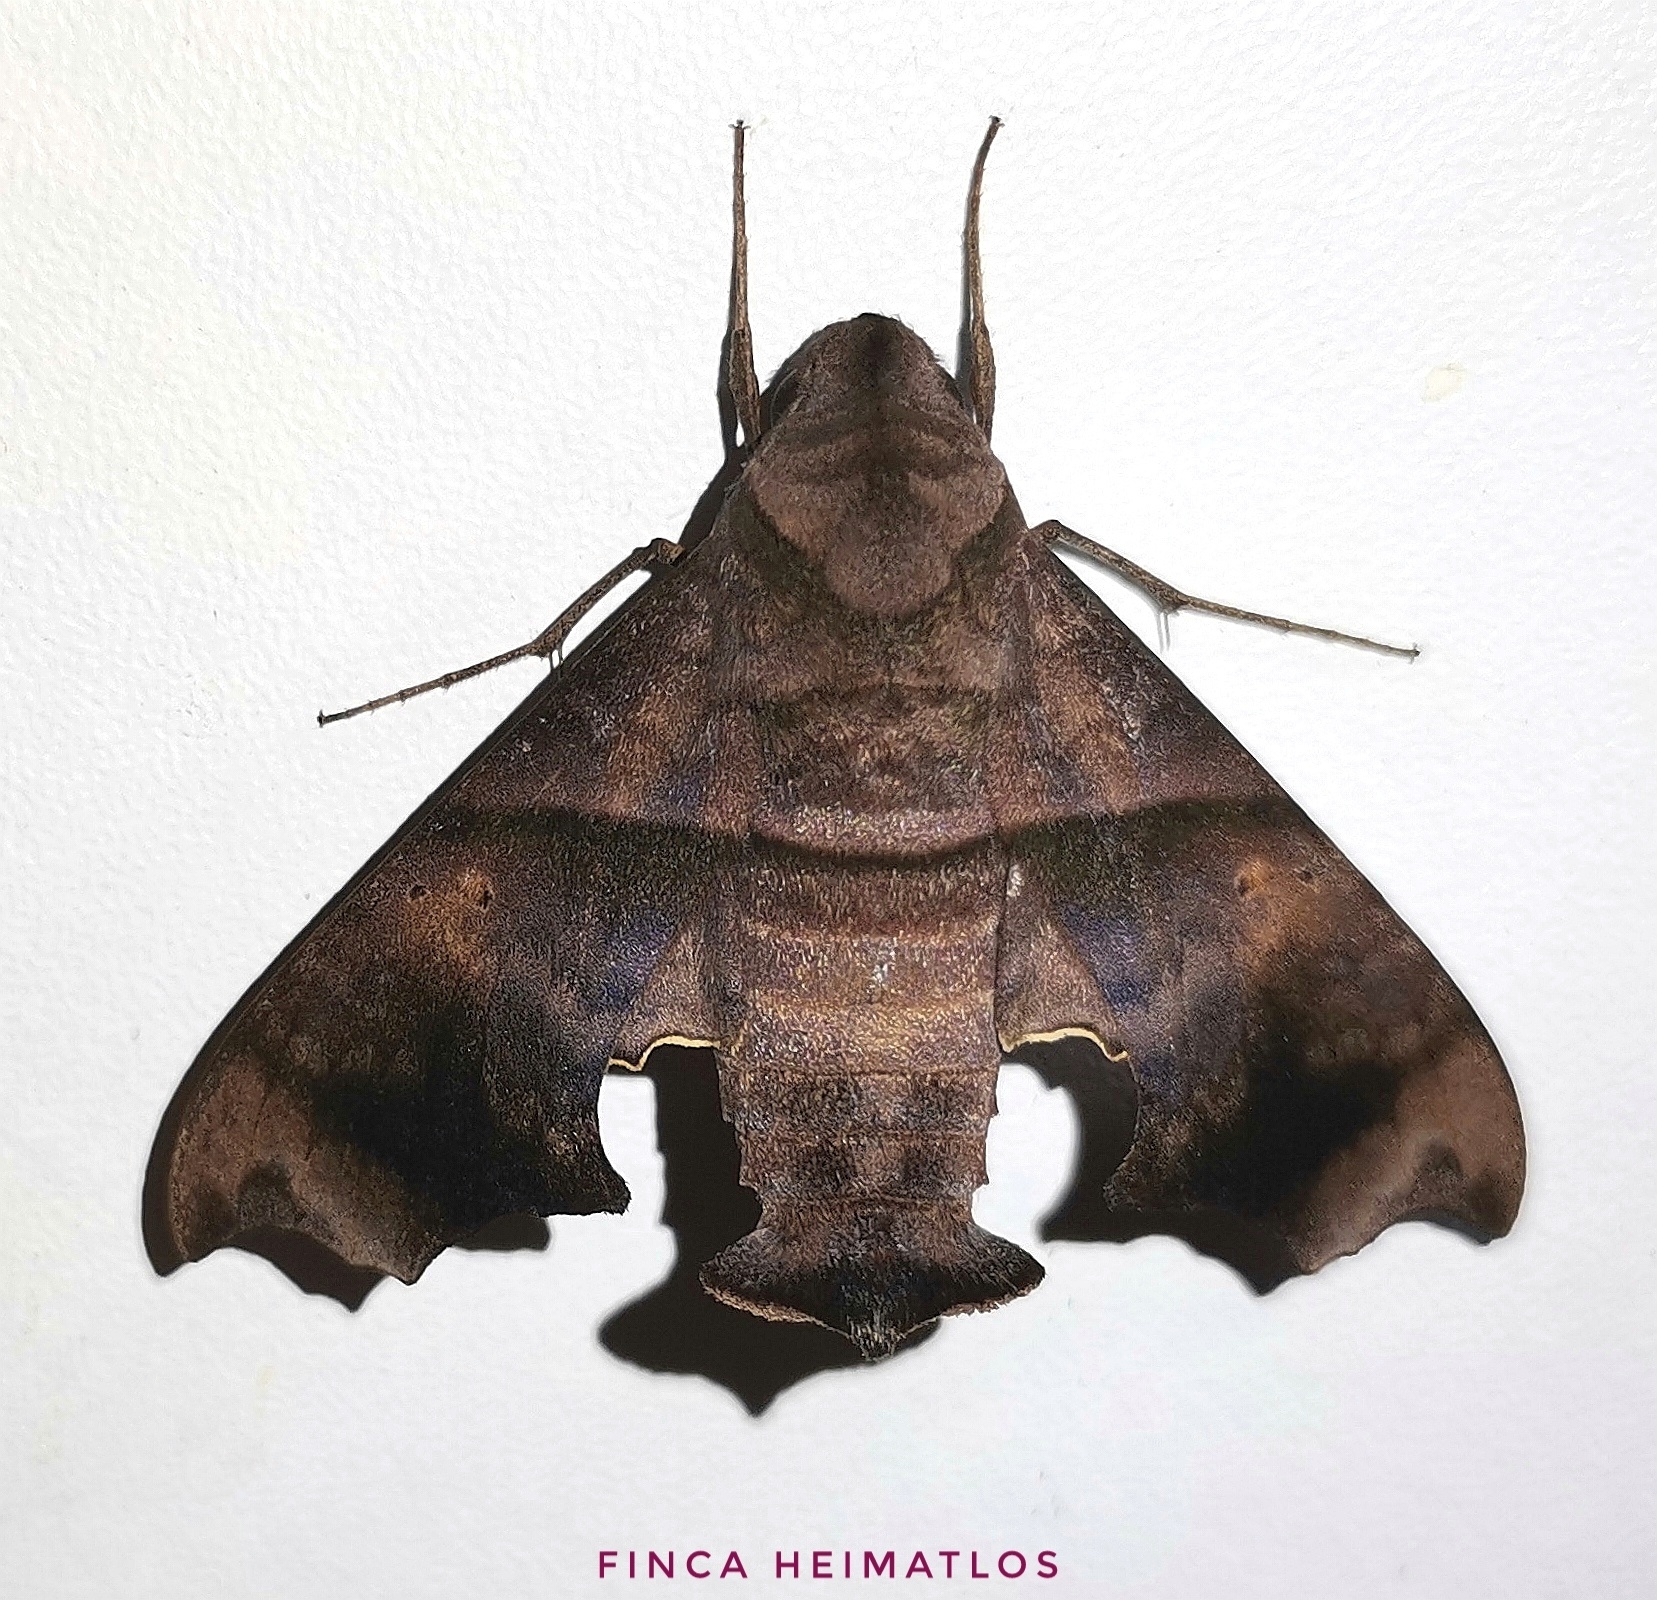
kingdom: Animalia
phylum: Arthropoda
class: Insecta
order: Lepidoptera
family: Sphingidae
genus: Perigonia
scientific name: Perigonia stulta
